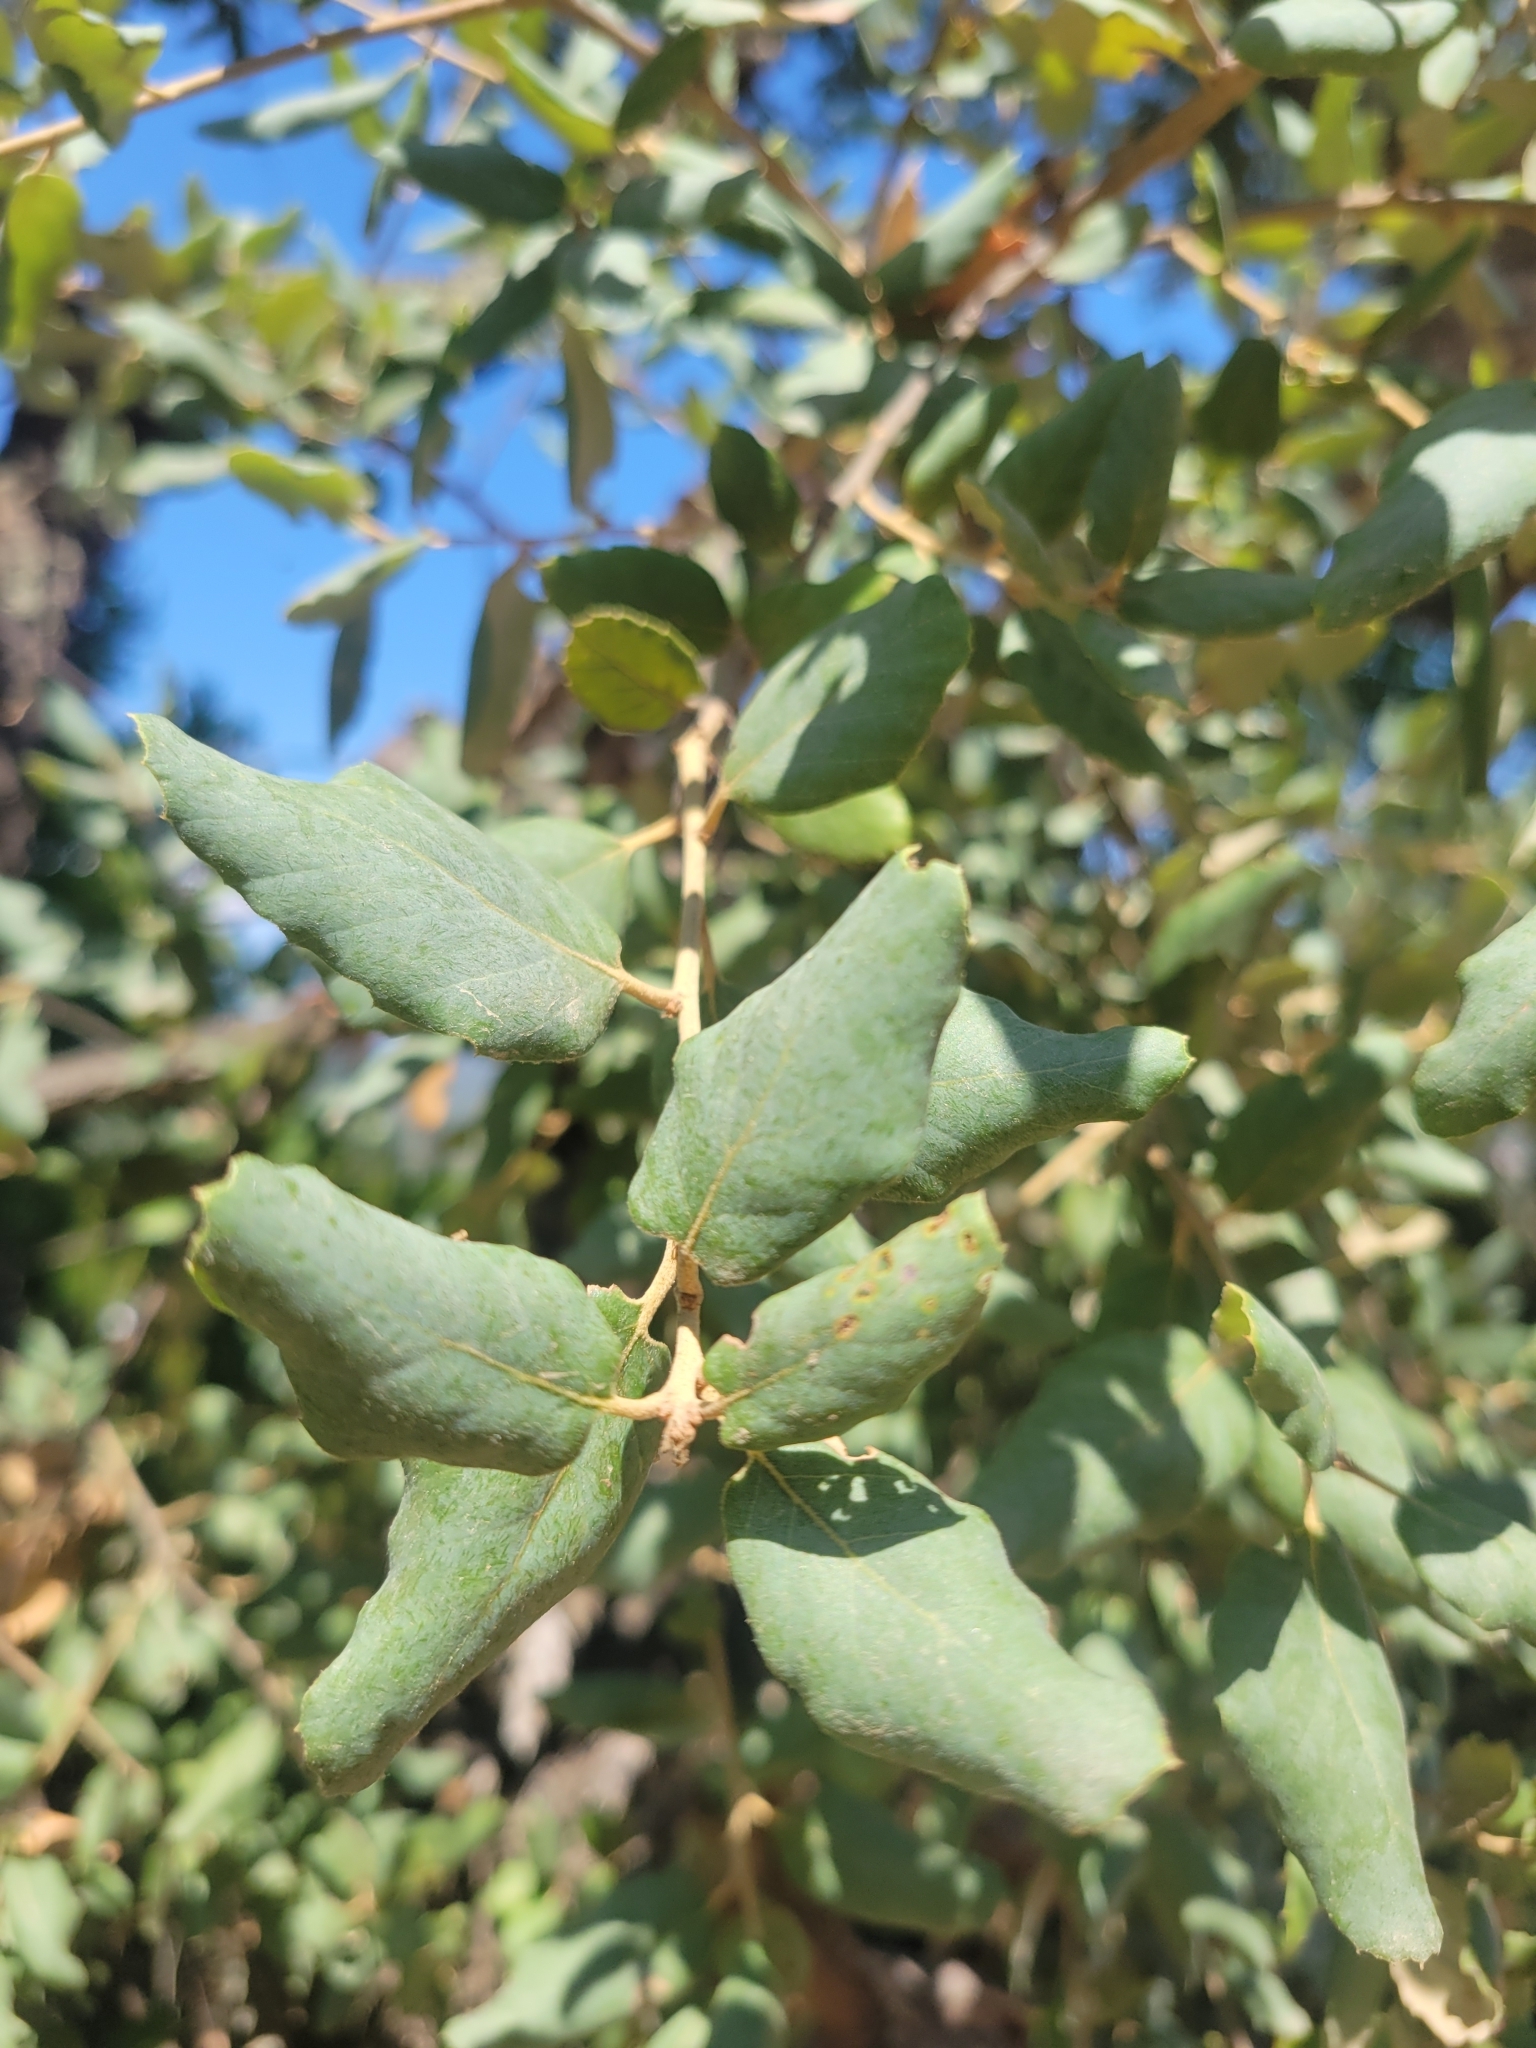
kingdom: Plantae
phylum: Tracheophyta
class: Magnoliopsida
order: Fagales
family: Fagaceae
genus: Quercus
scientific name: Quercus suber
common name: Cork oak
